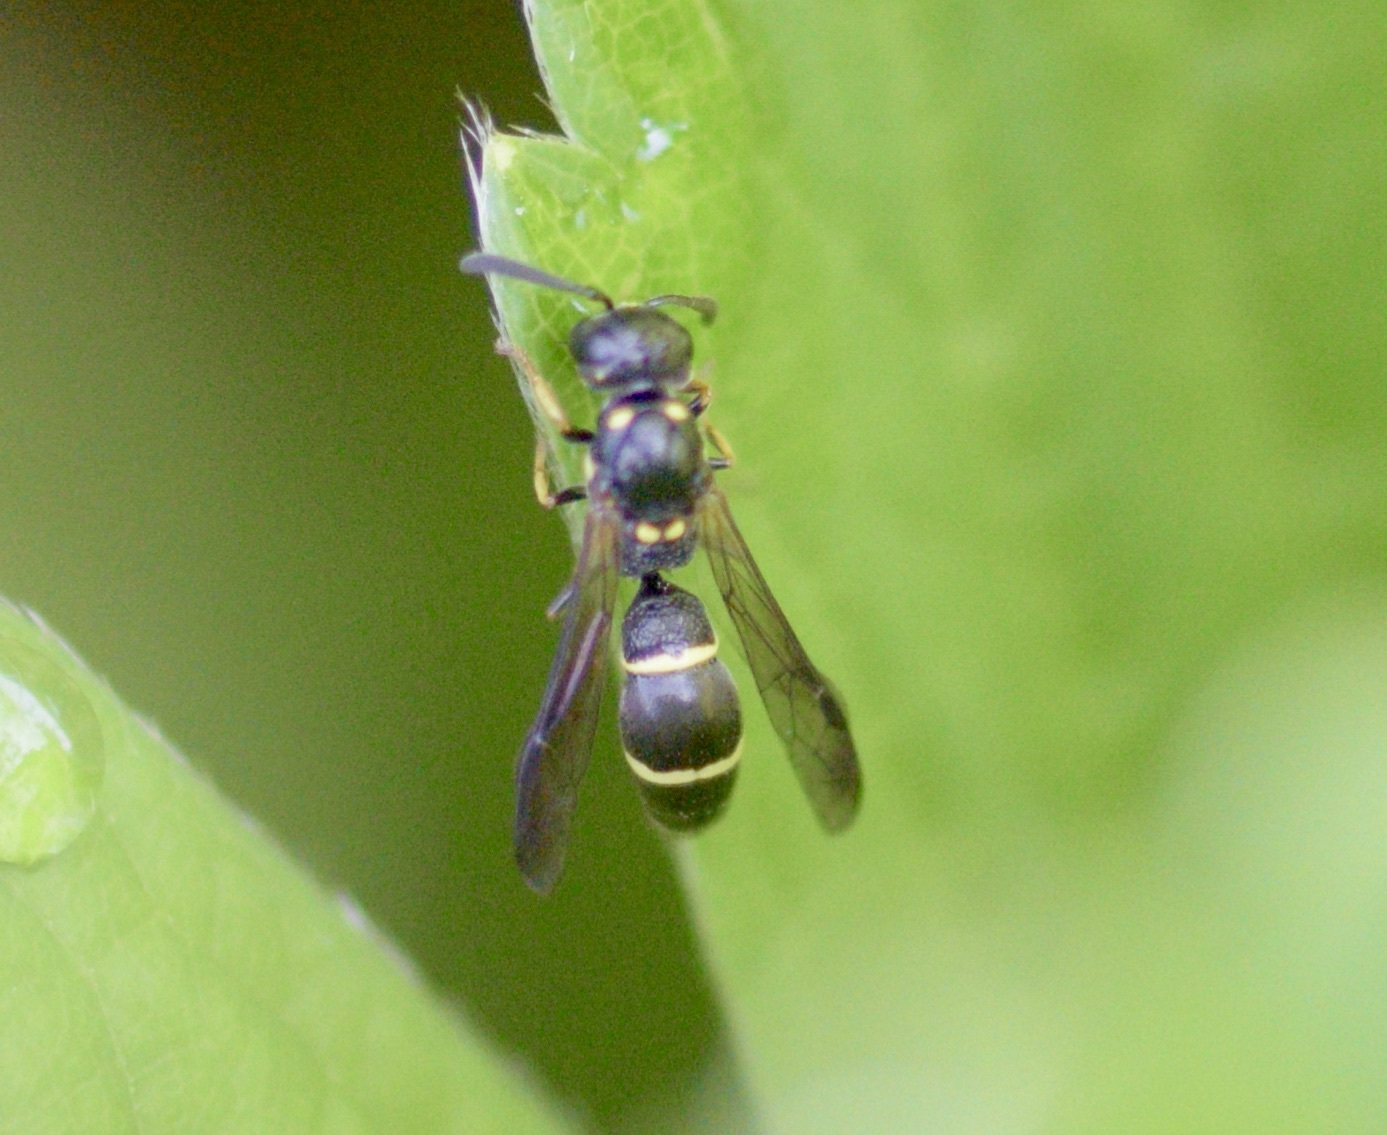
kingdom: Animalia
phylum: Arthropoda
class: Insecta
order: Hymenoptera
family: Eumenidae
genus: Symmorphus
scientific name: Symmorphus
